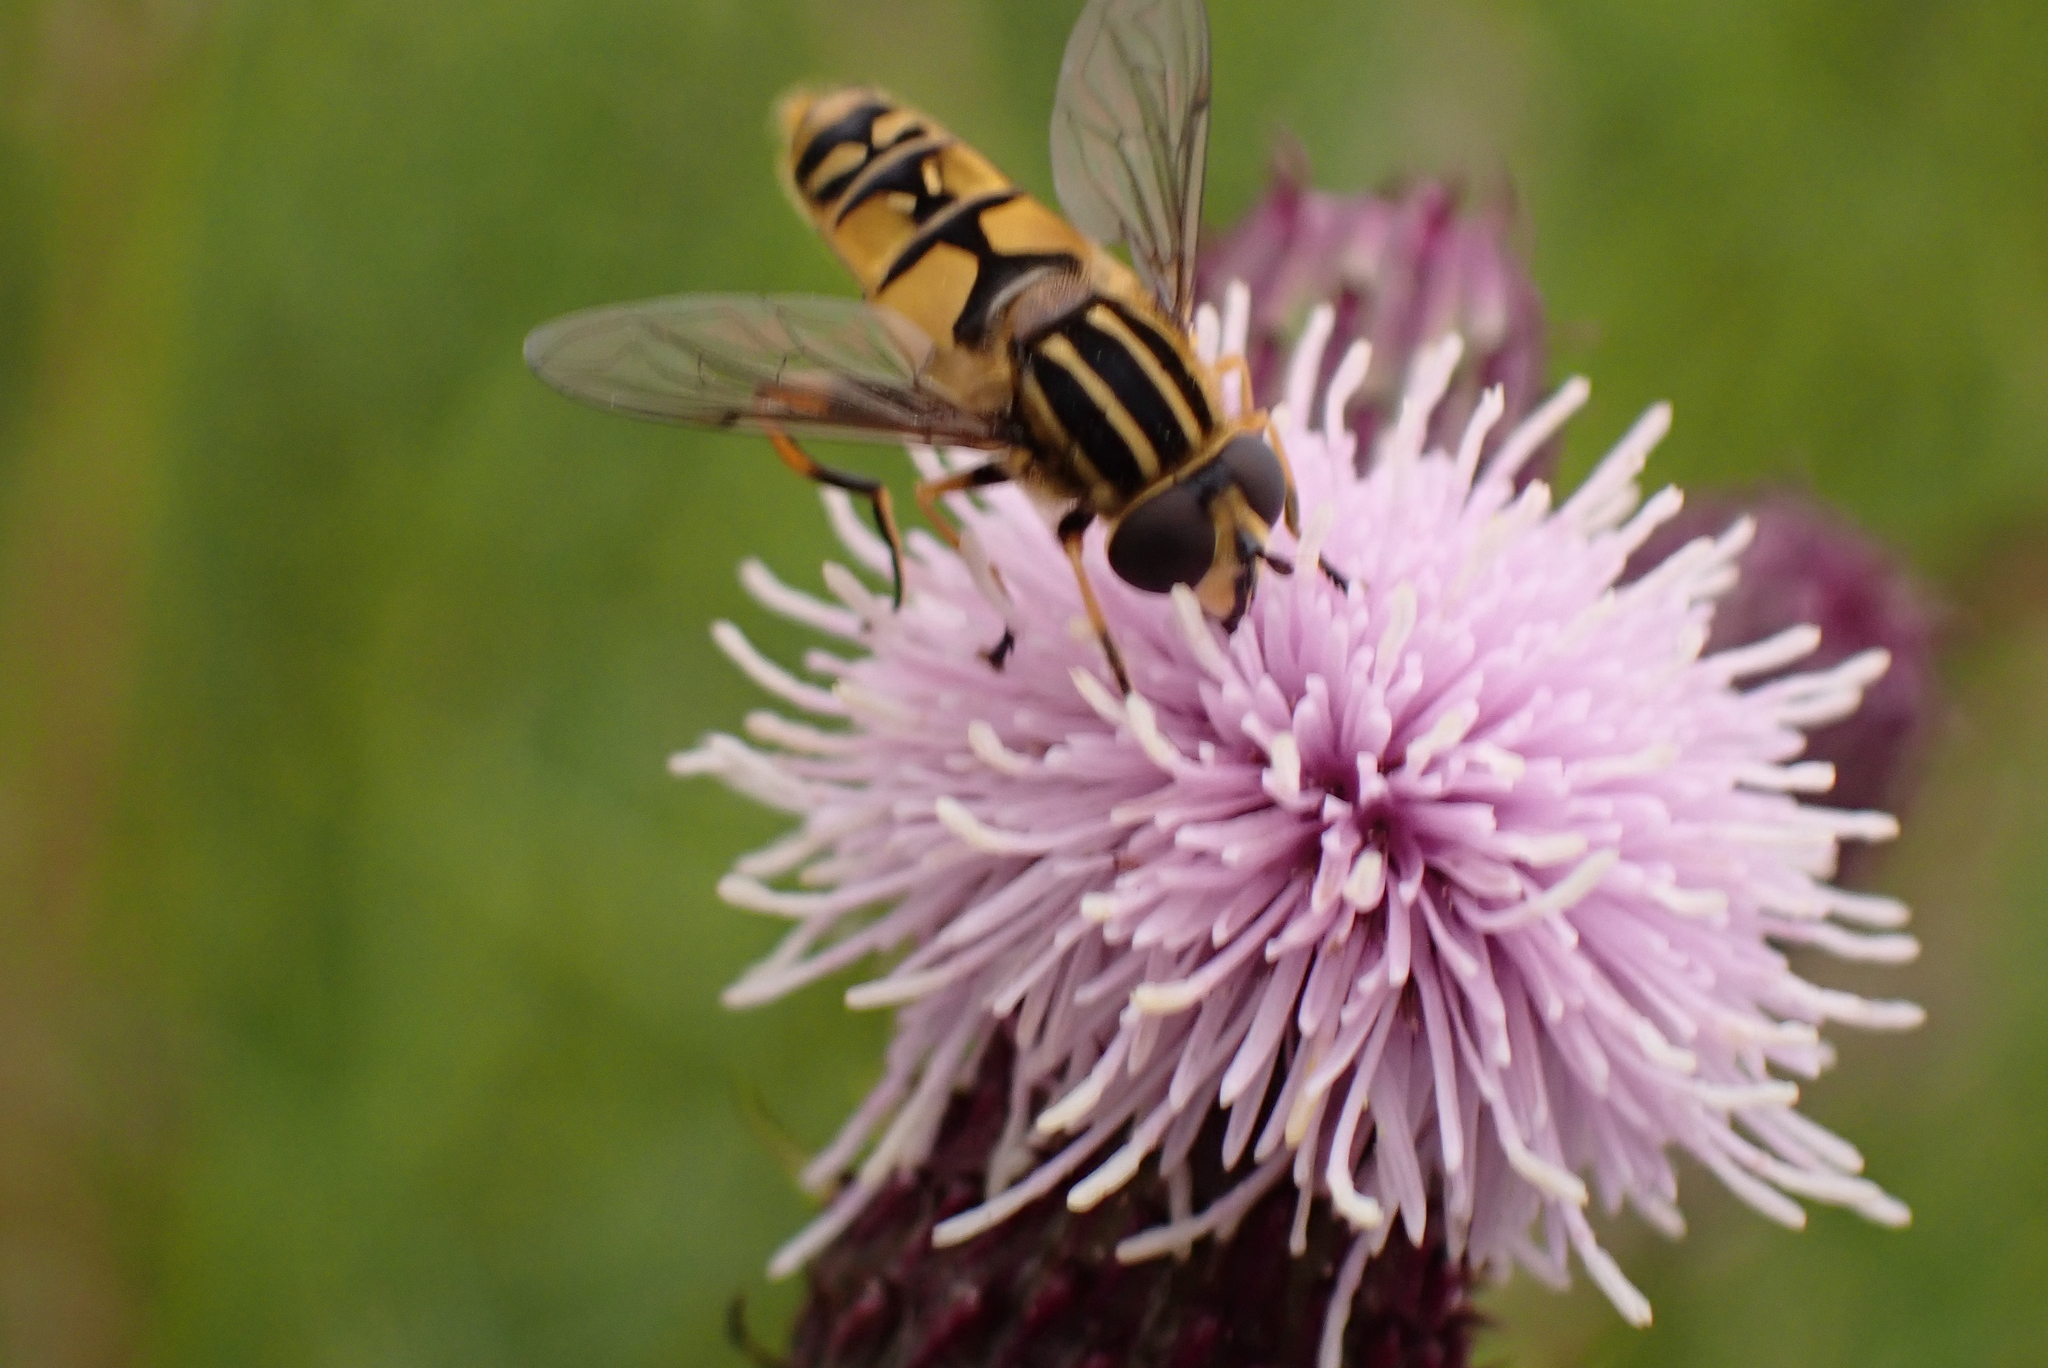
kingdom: Animalia
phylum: Arthropoda
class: Insecta
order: Diptera
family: Syrphidae
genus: Helophilus
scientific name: Helophilus pendulus
